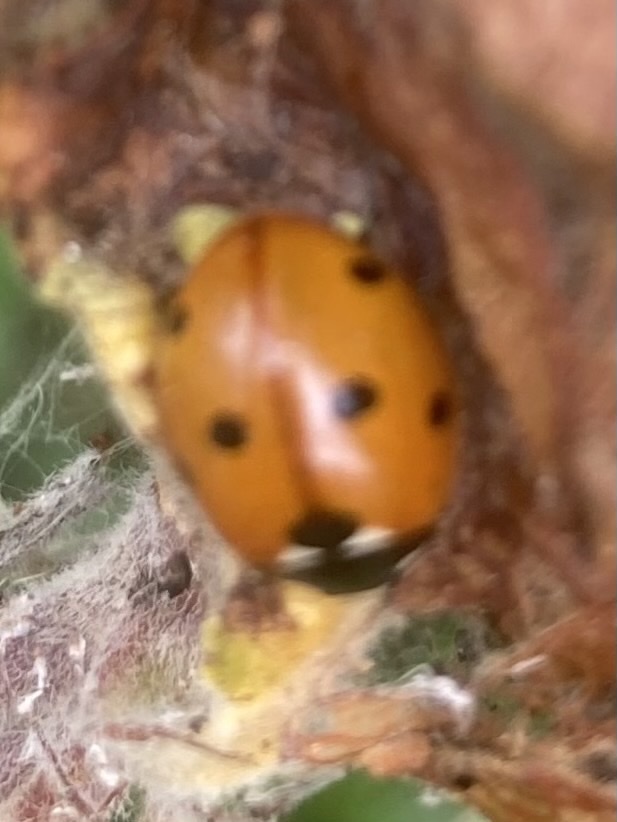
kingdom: Animalia
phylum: Arthropoda
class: Insecta
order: Coleoptera
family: Coccinellidae
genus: Coccinella
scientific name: Coccinella septempunctata
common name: Sevenspotted lady beetle
